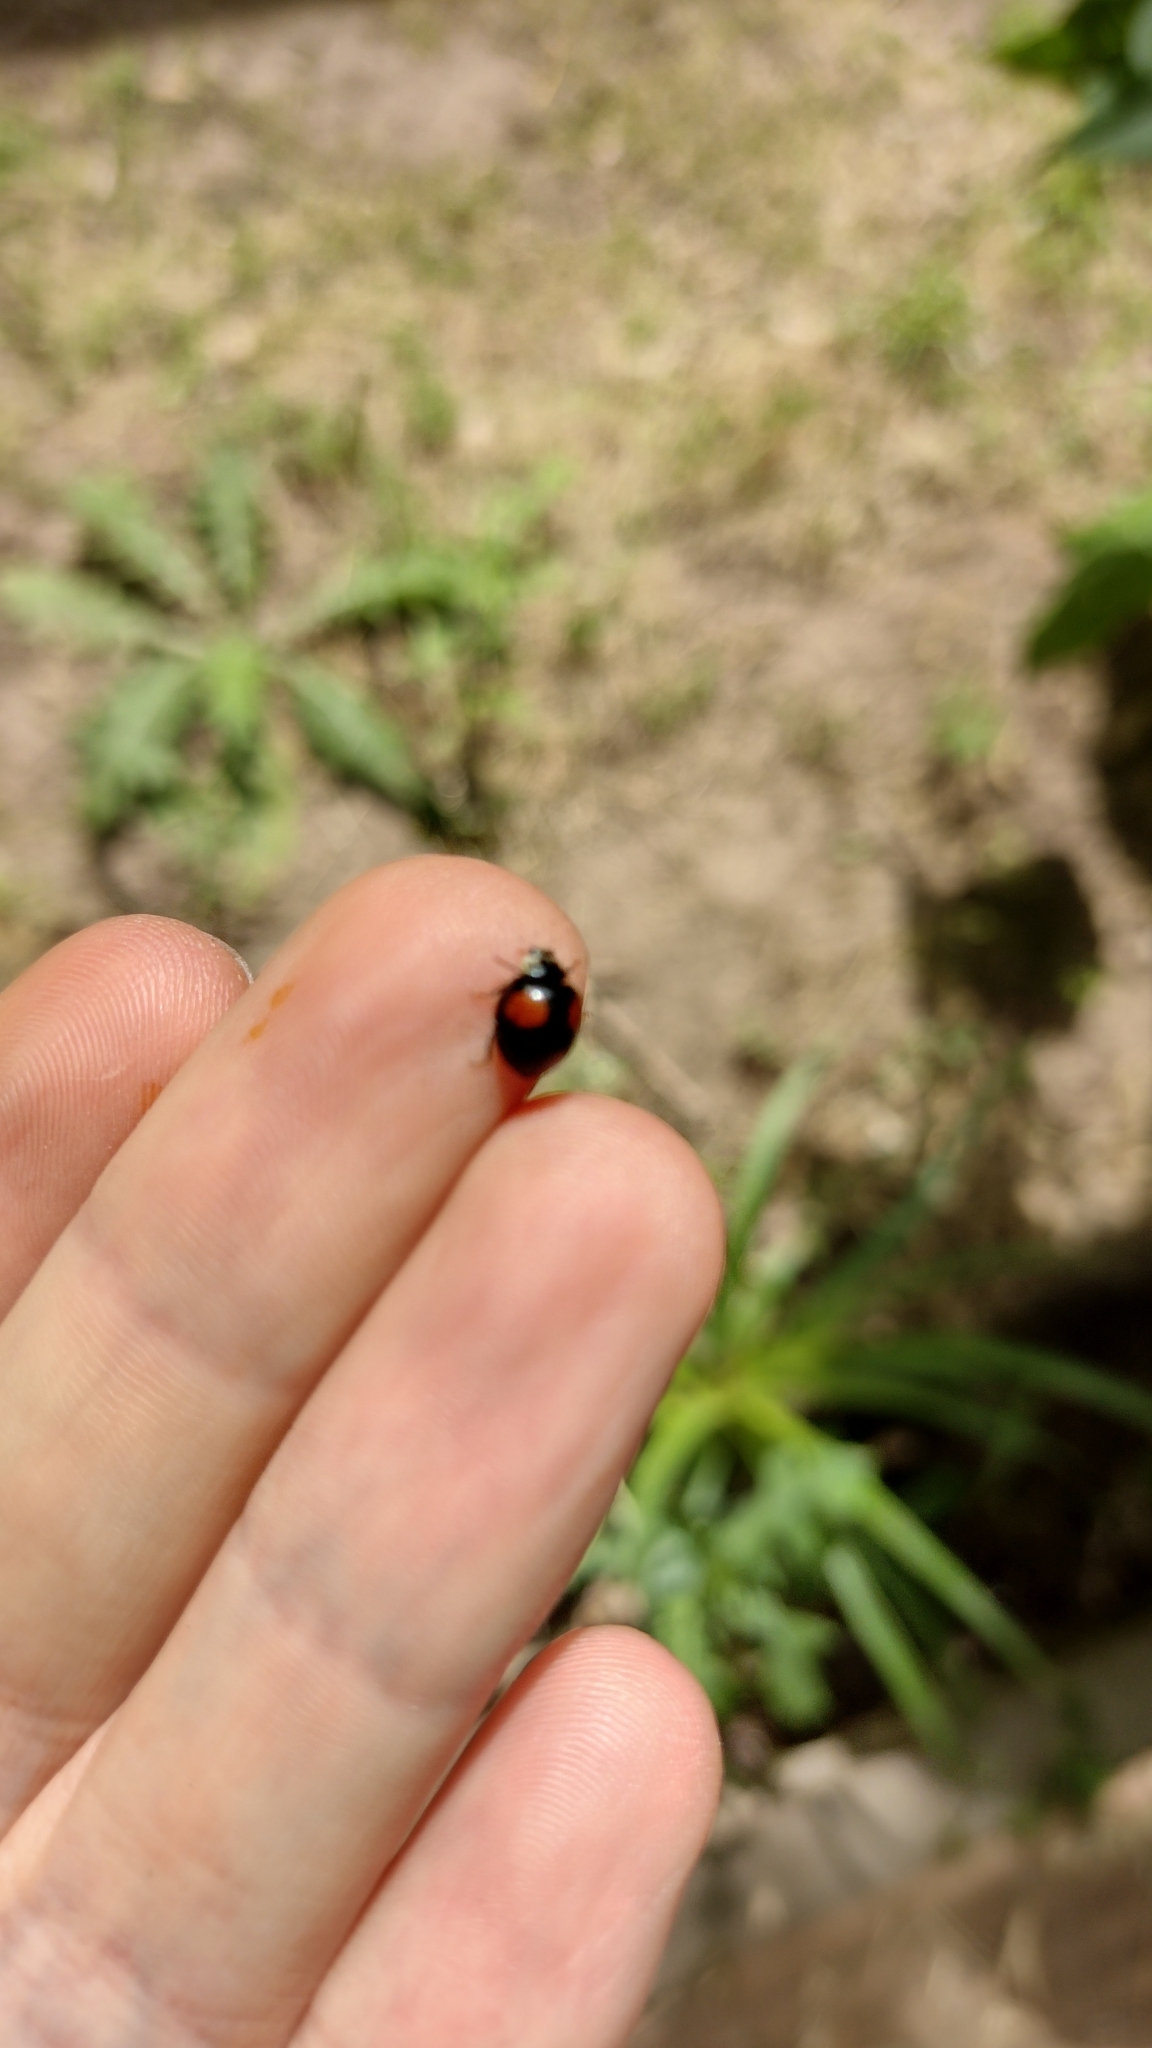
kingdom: Animalia
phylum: Arthropoda
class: Insecta
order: Coleoptera
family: Coccinellidae
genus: Olla
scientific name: Olla v-nigrum
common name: Ashy gray lady beetle
